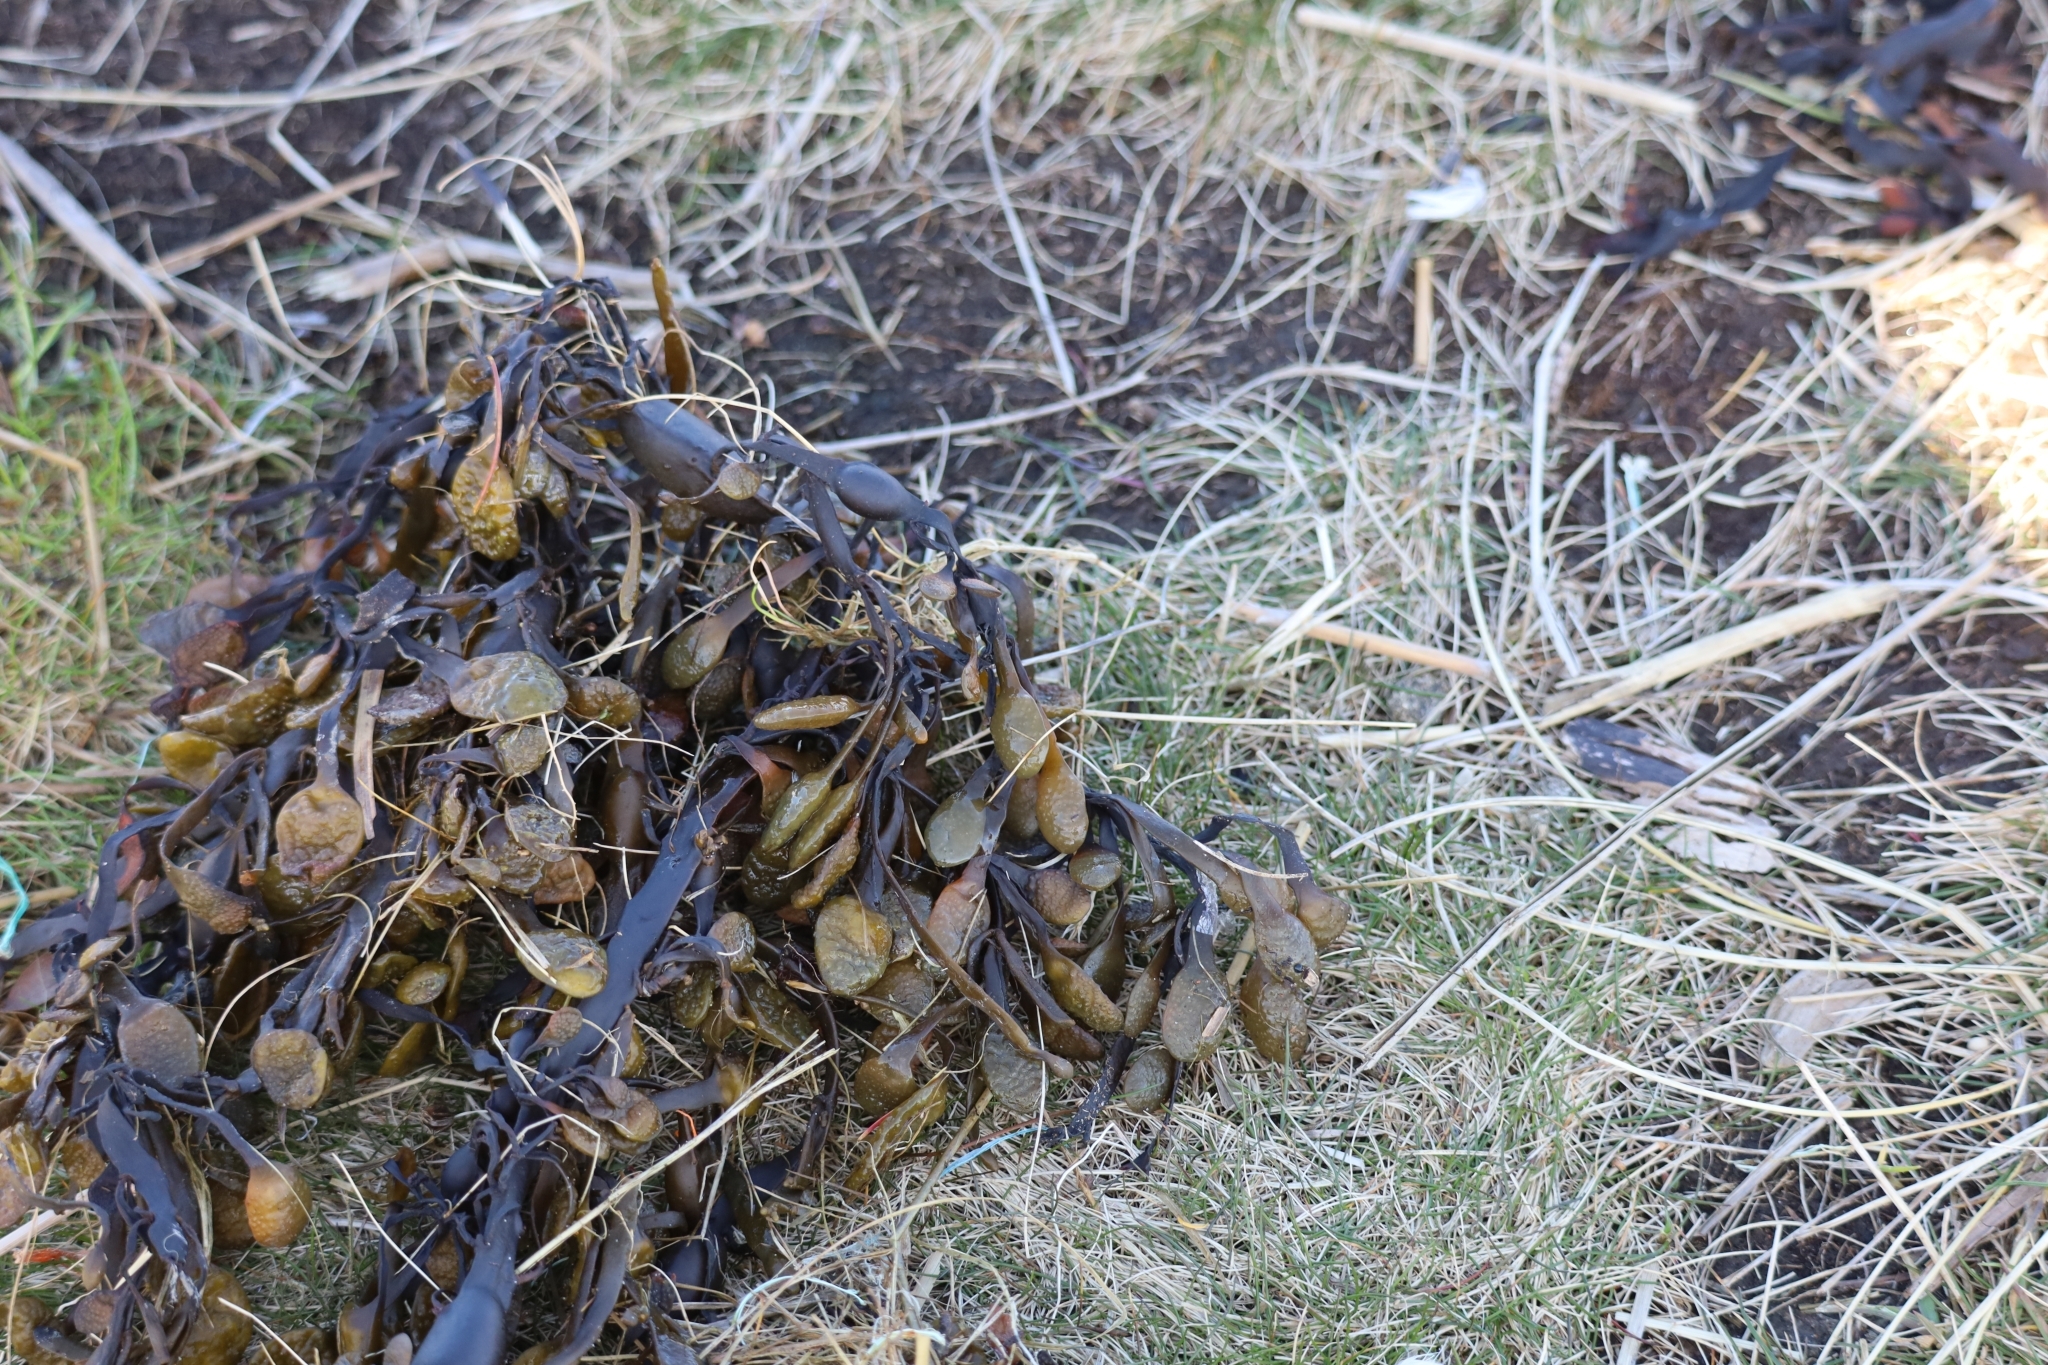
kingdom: Chromista
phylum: Ochrophyta
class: Phaeophyceae
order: Fucales
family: Fucaceae
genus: Ascophyllum
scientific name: Ascophyllum nodosum
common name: Knotted wrack
